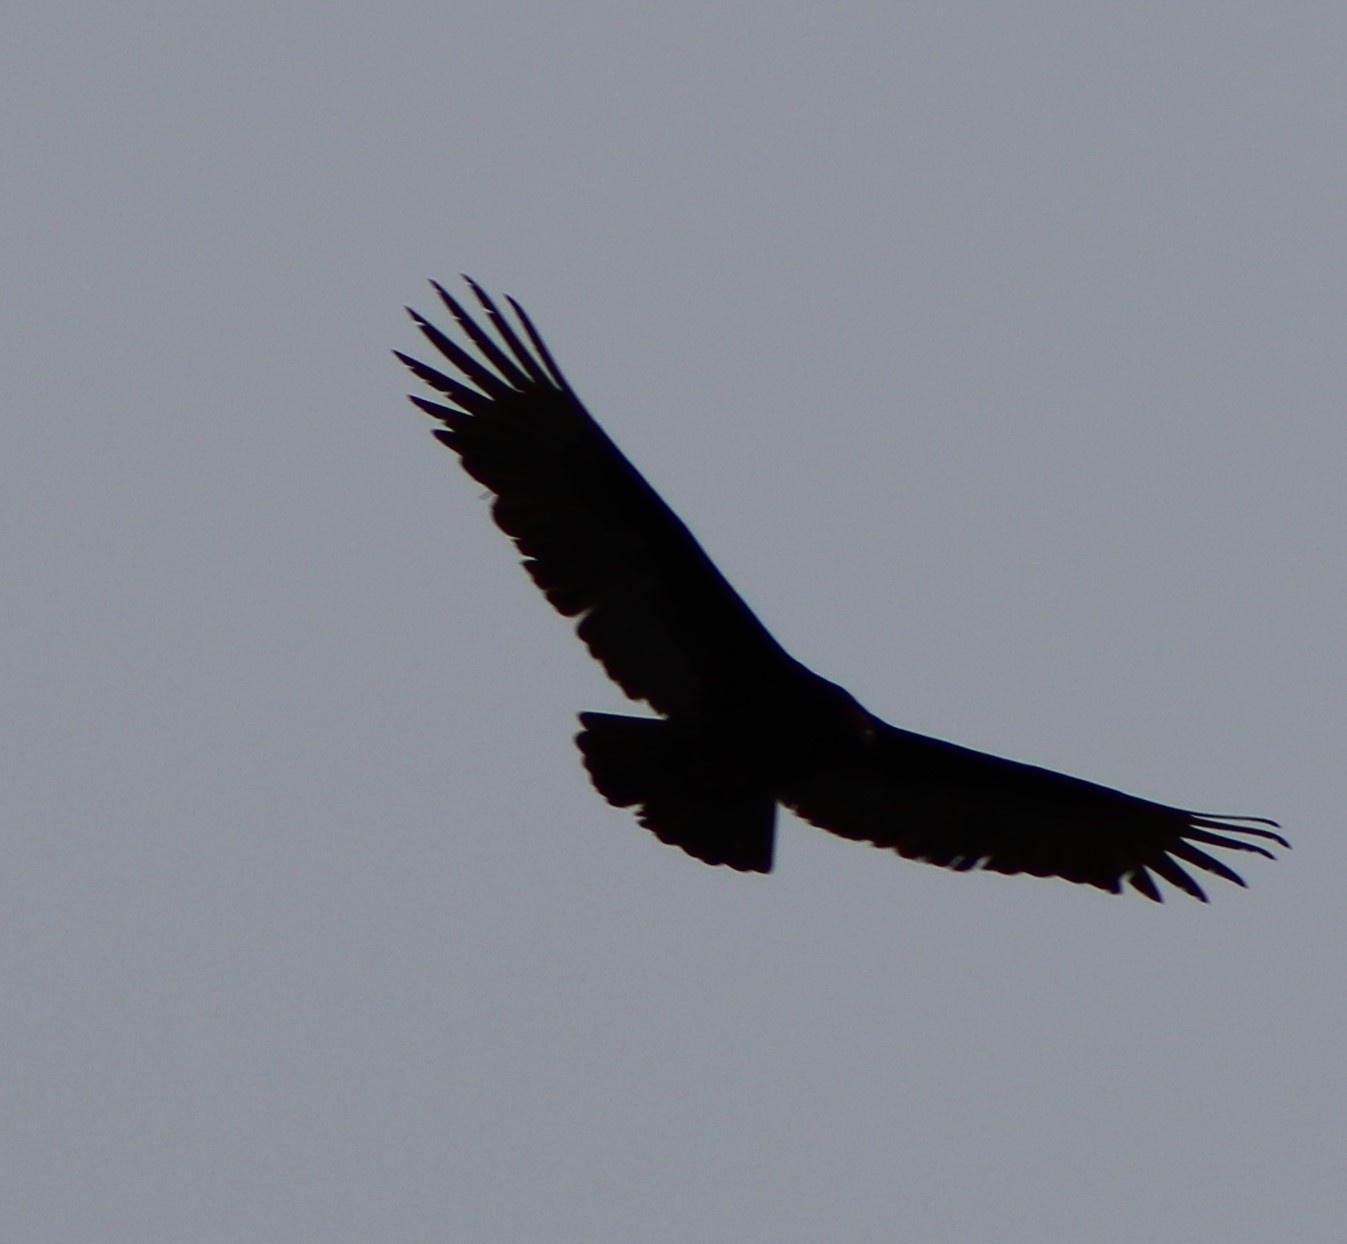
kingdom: Animalia
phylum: Chordata
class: Aves
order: Accipitriformes
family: Cathartidae
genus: Coragyps
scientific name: Coragyps atratus
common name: Black vulture
